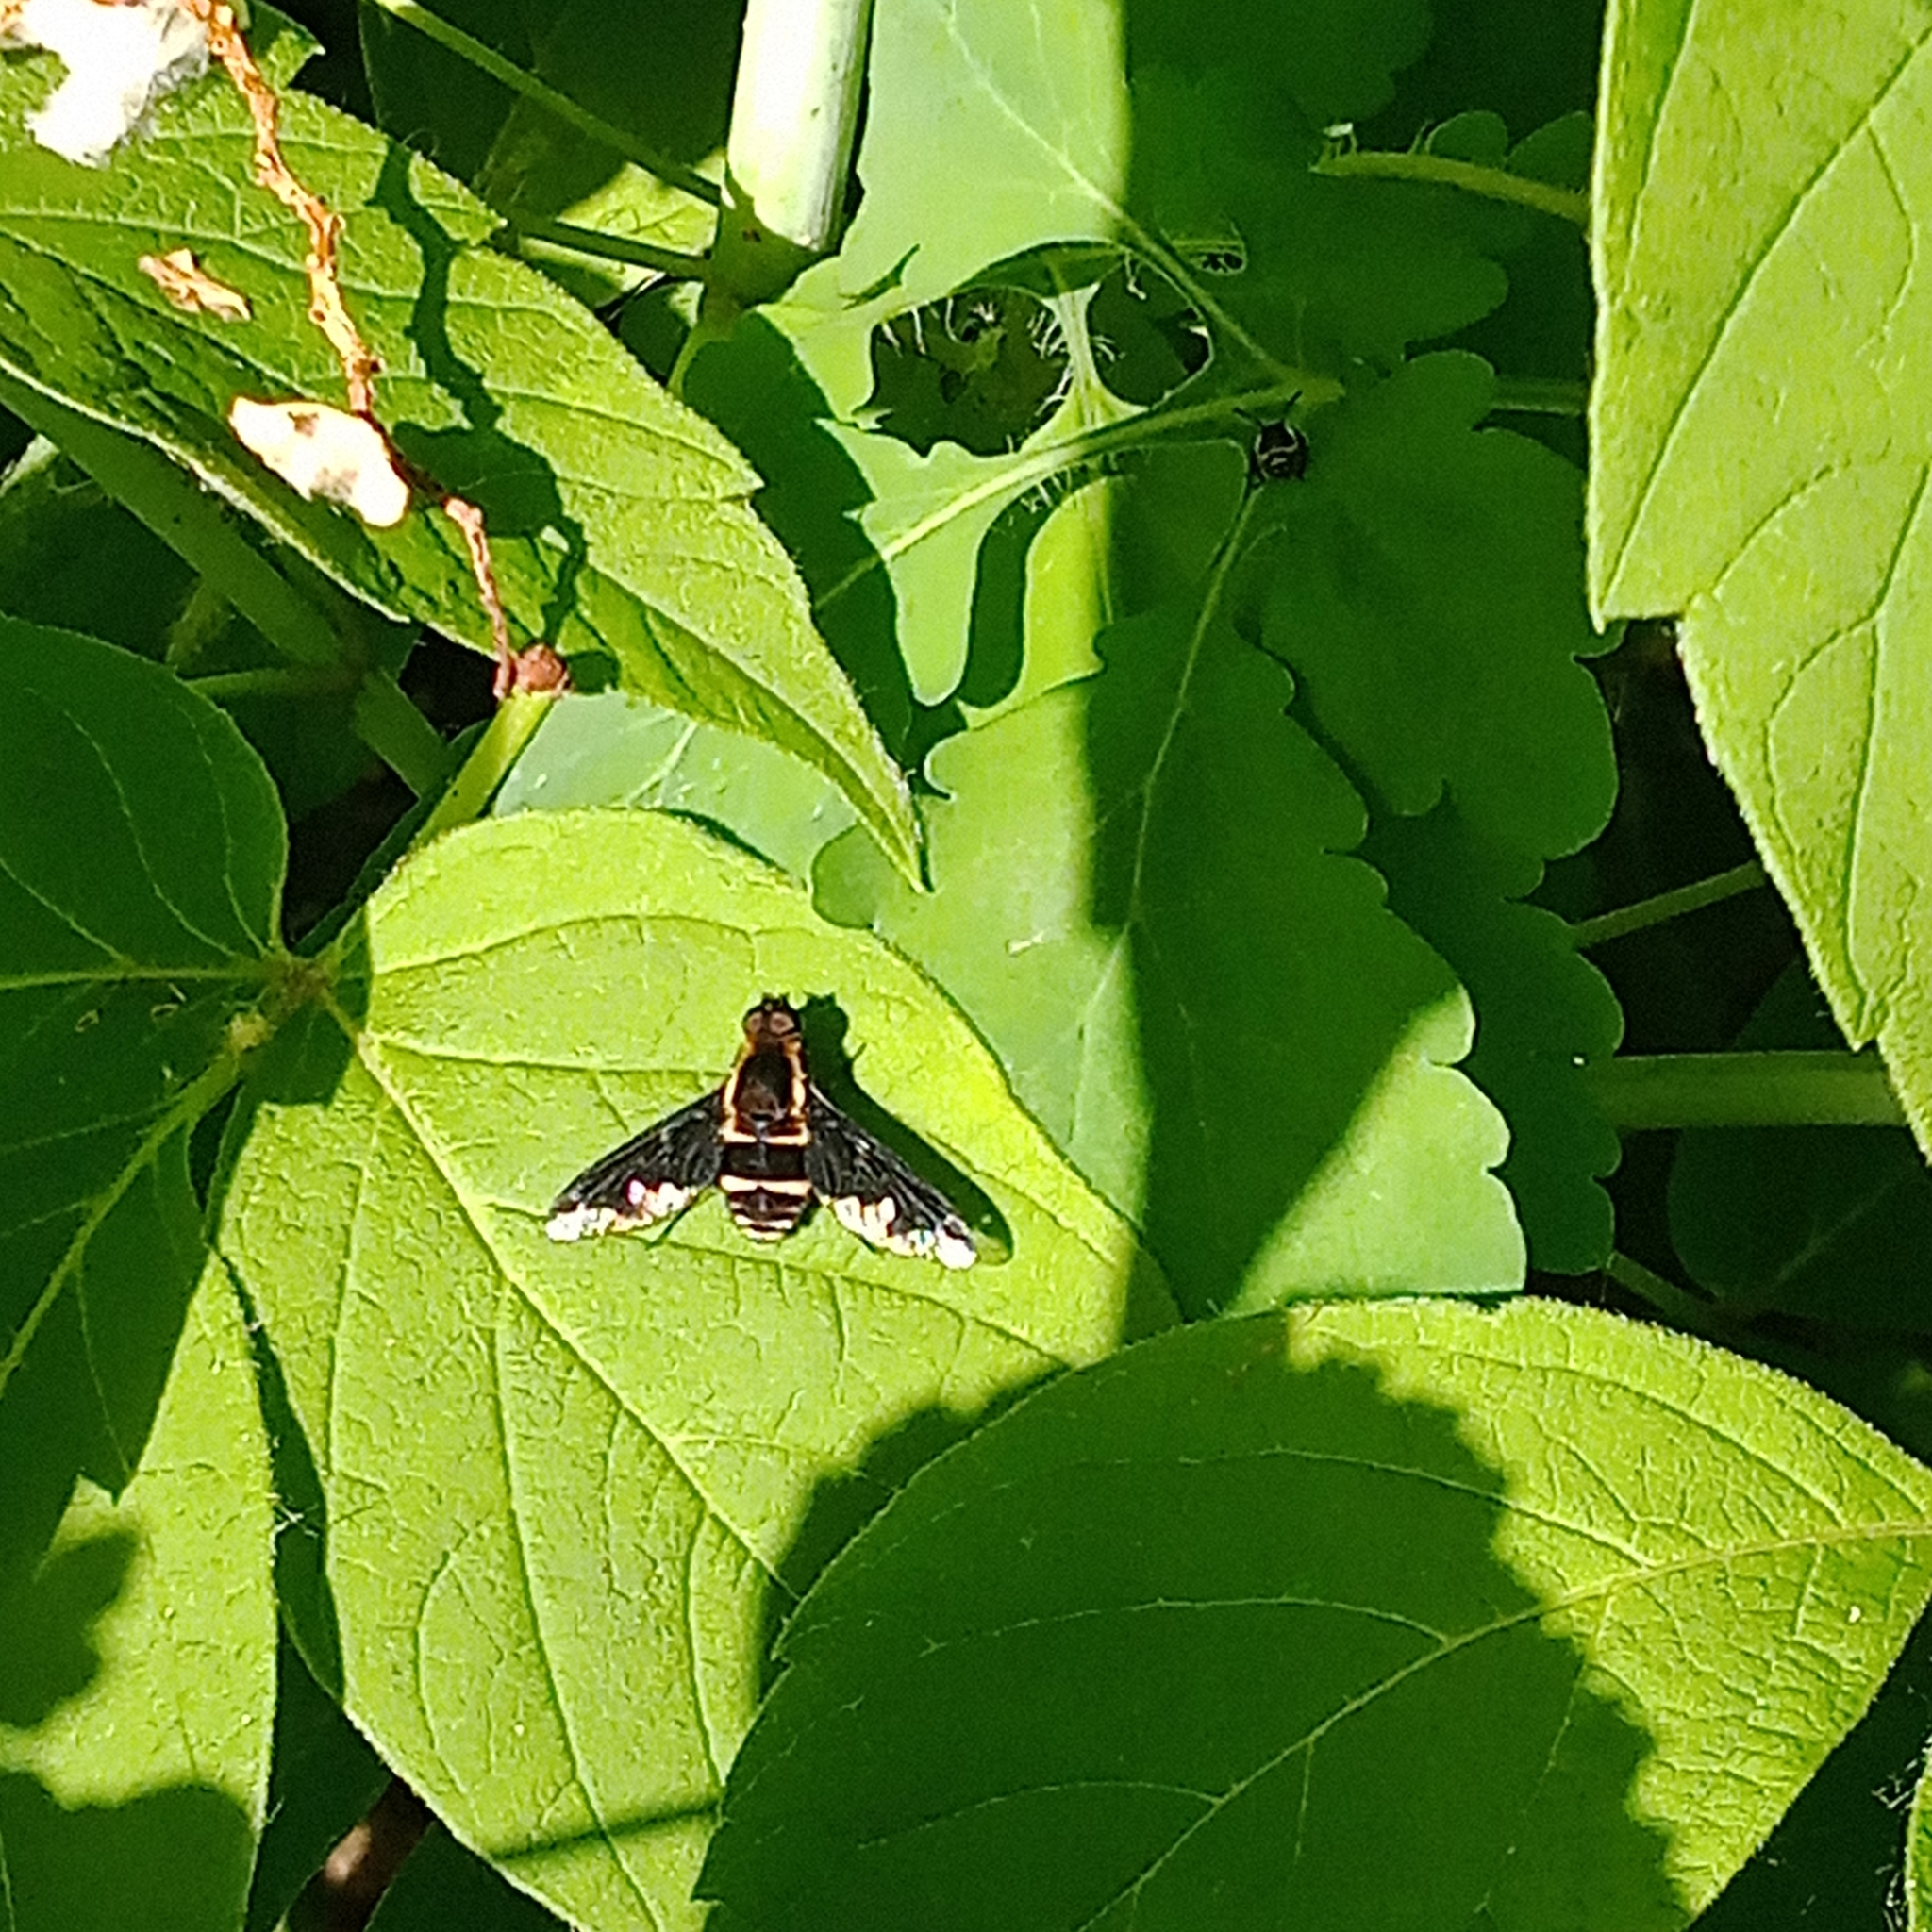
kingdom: Animalia
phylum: Arthropoda
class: Insecta
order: Diptera
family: Bombyliidae
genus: Hemipenthes
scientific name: Hemipenthes maura
